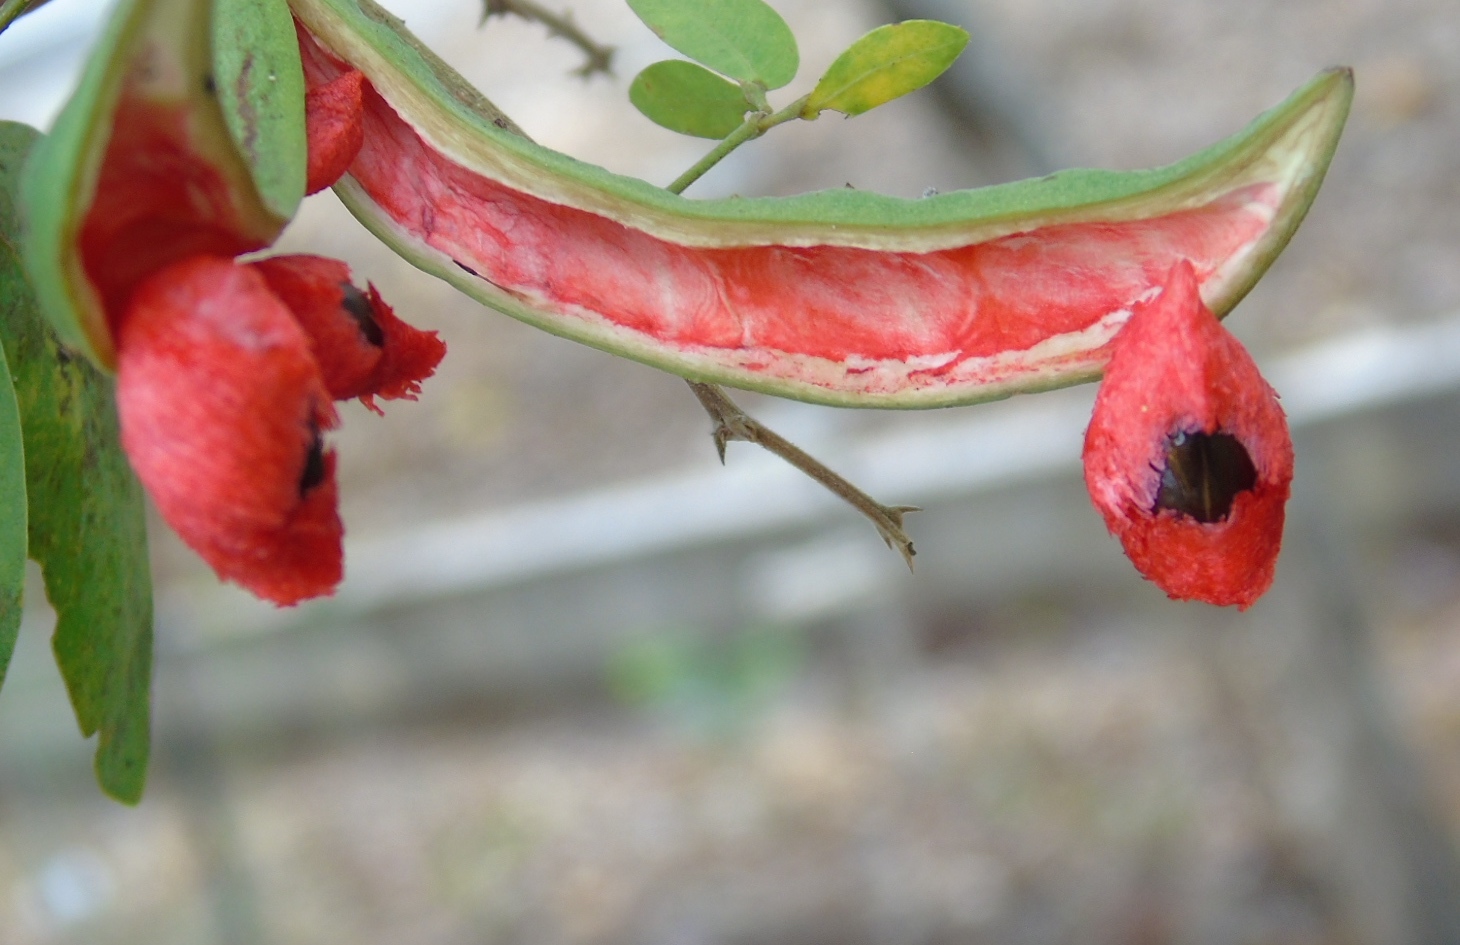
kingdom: Plantae
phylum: Tracheophyta
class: Magnoliopsida
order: Fabales
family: Fabaceae
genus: Pithecellobium
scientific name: Pithecellobium lanceolatum
